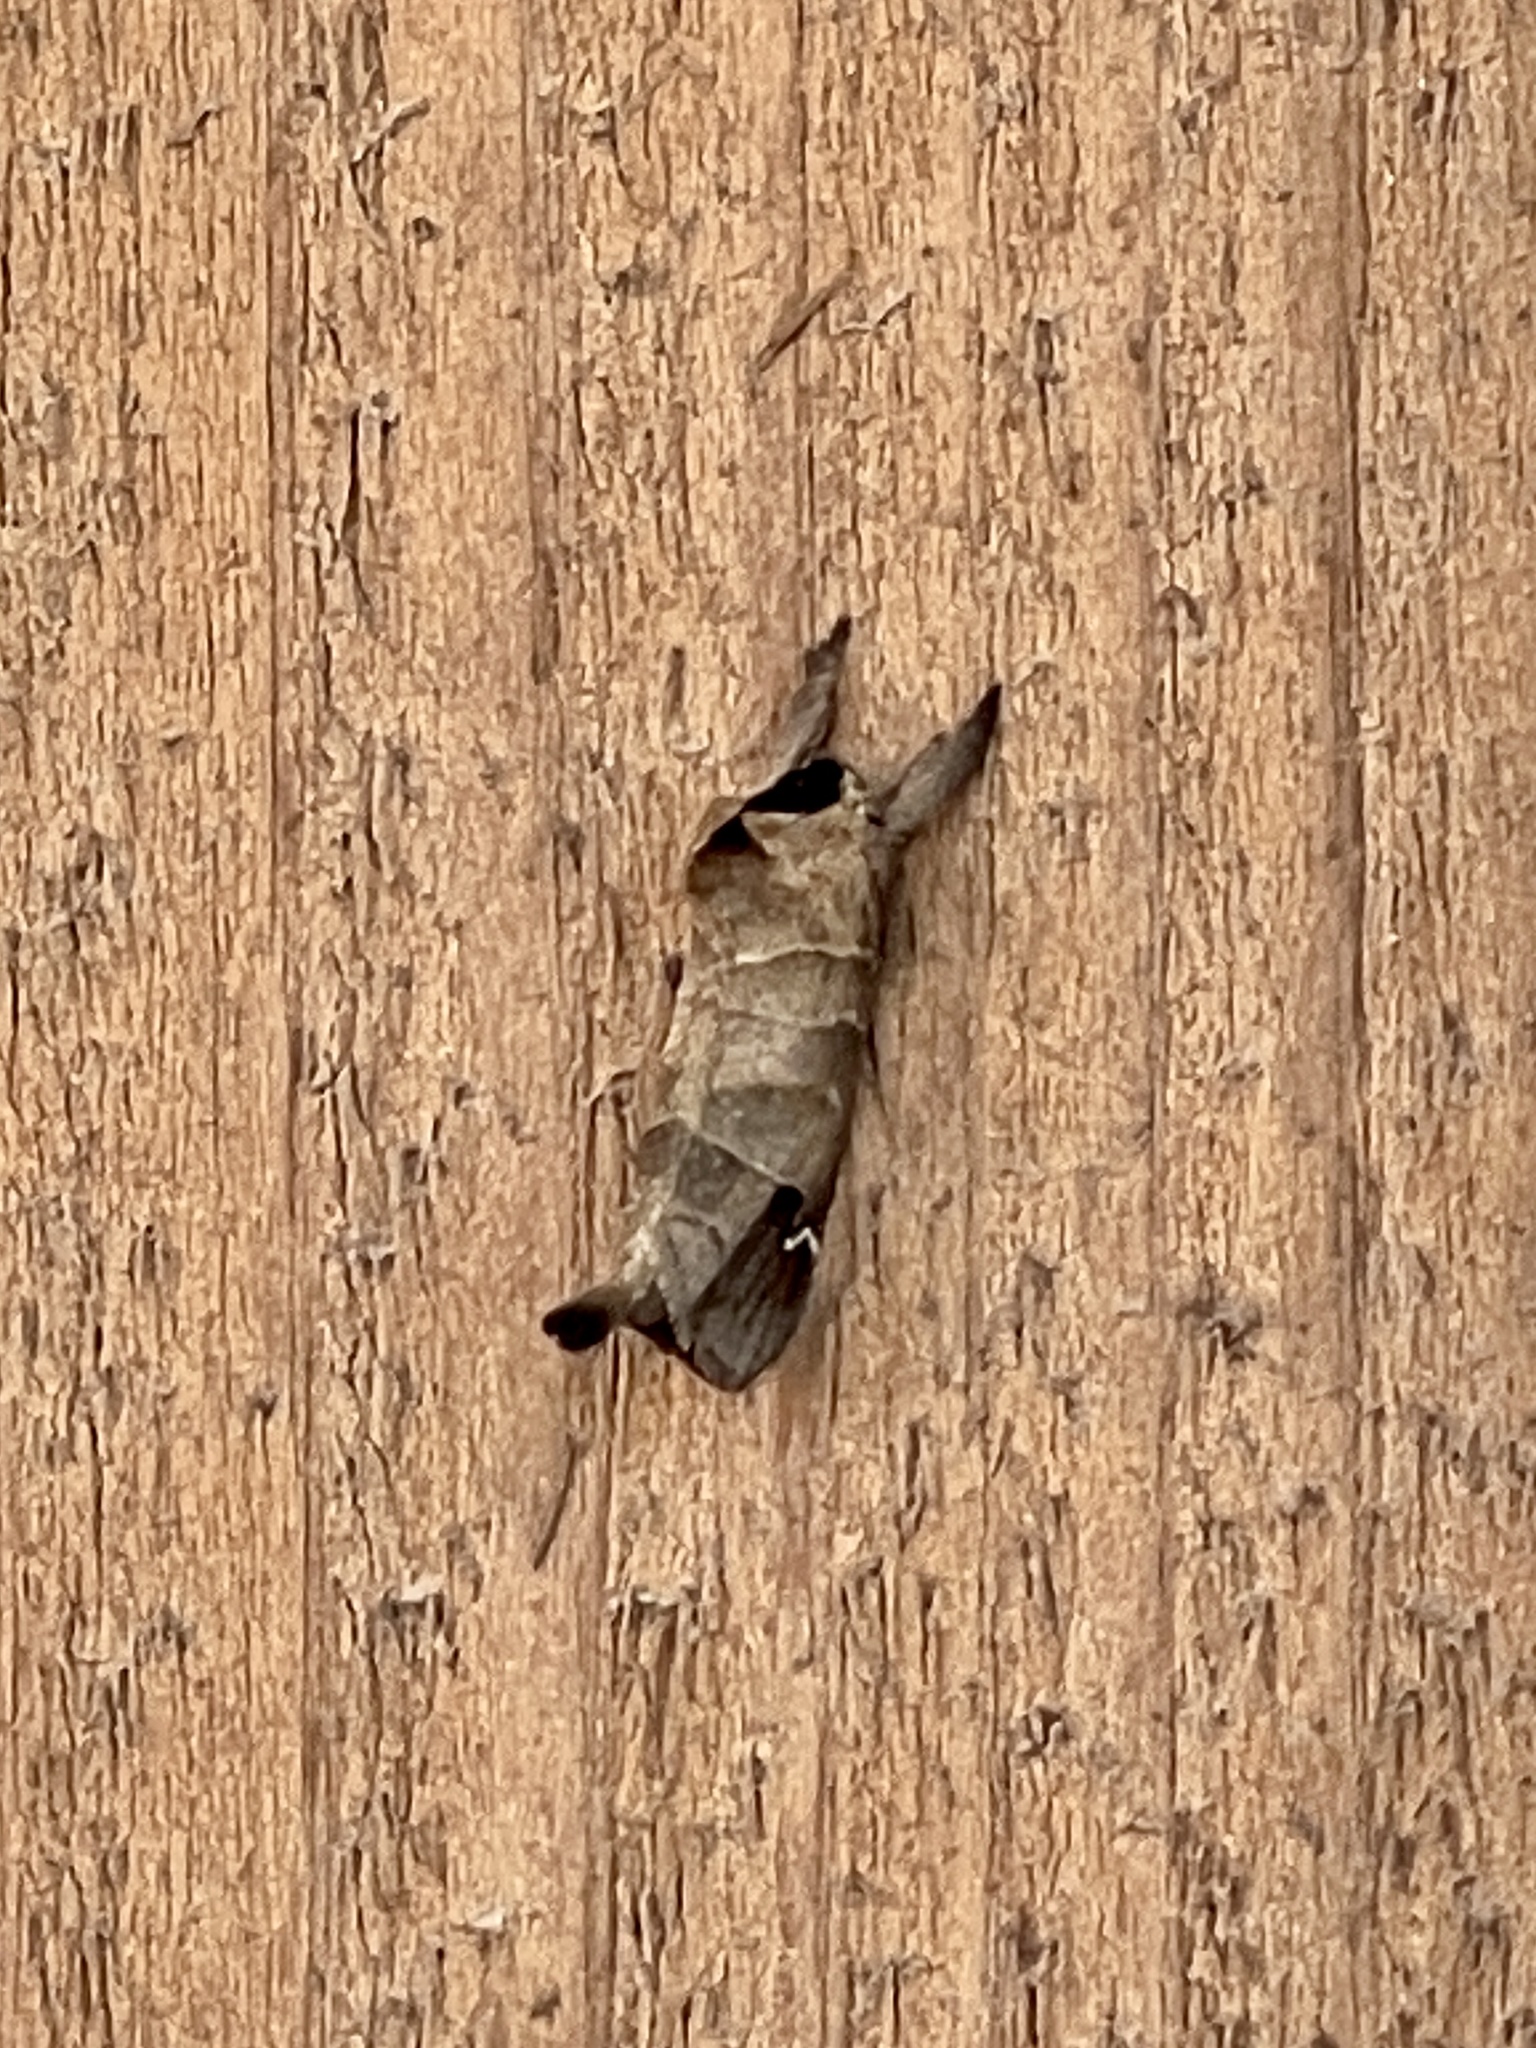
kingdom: Animalia
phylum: Arthropoda
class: Insecta
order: Lepidoptera
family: Notodontidae
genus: Clostera
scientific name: Clostera albosigma
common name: Sigmoid prominent
